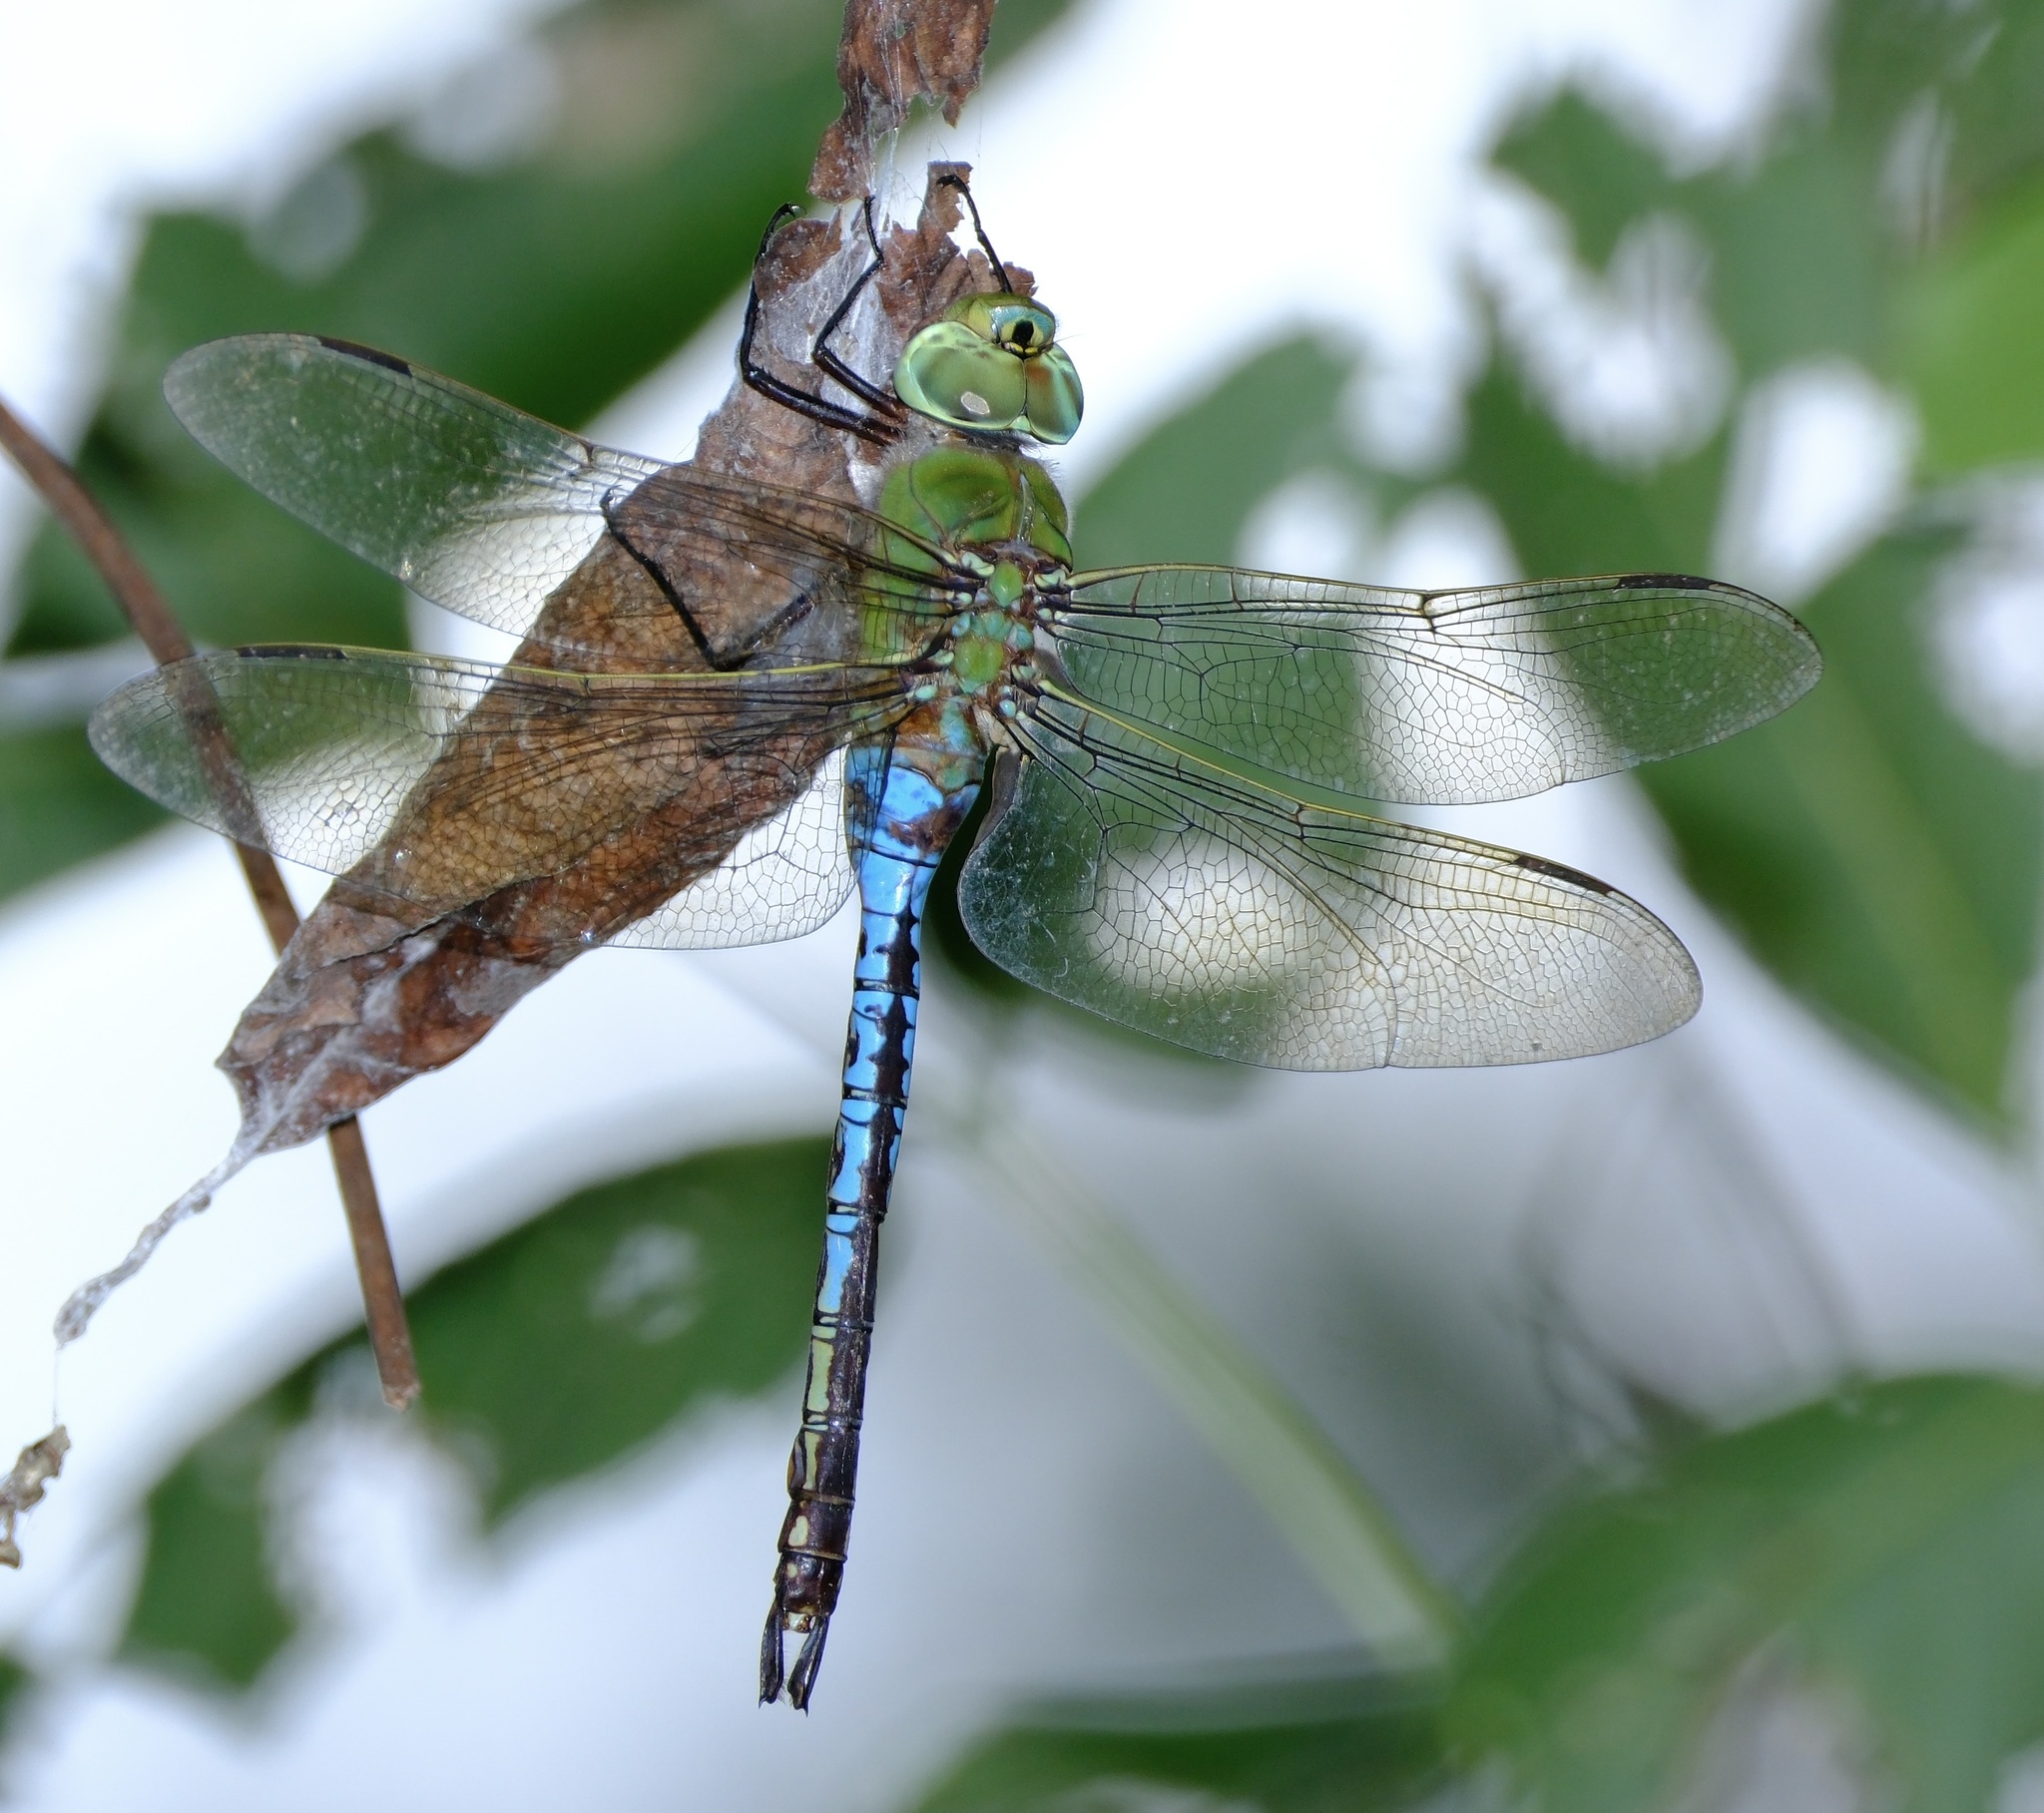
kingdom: Animalia
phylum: Arthropoda
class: Insecta
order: Odonata
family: Aeshnidae
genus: Anax
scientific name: Anax junius
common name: Common green darner
